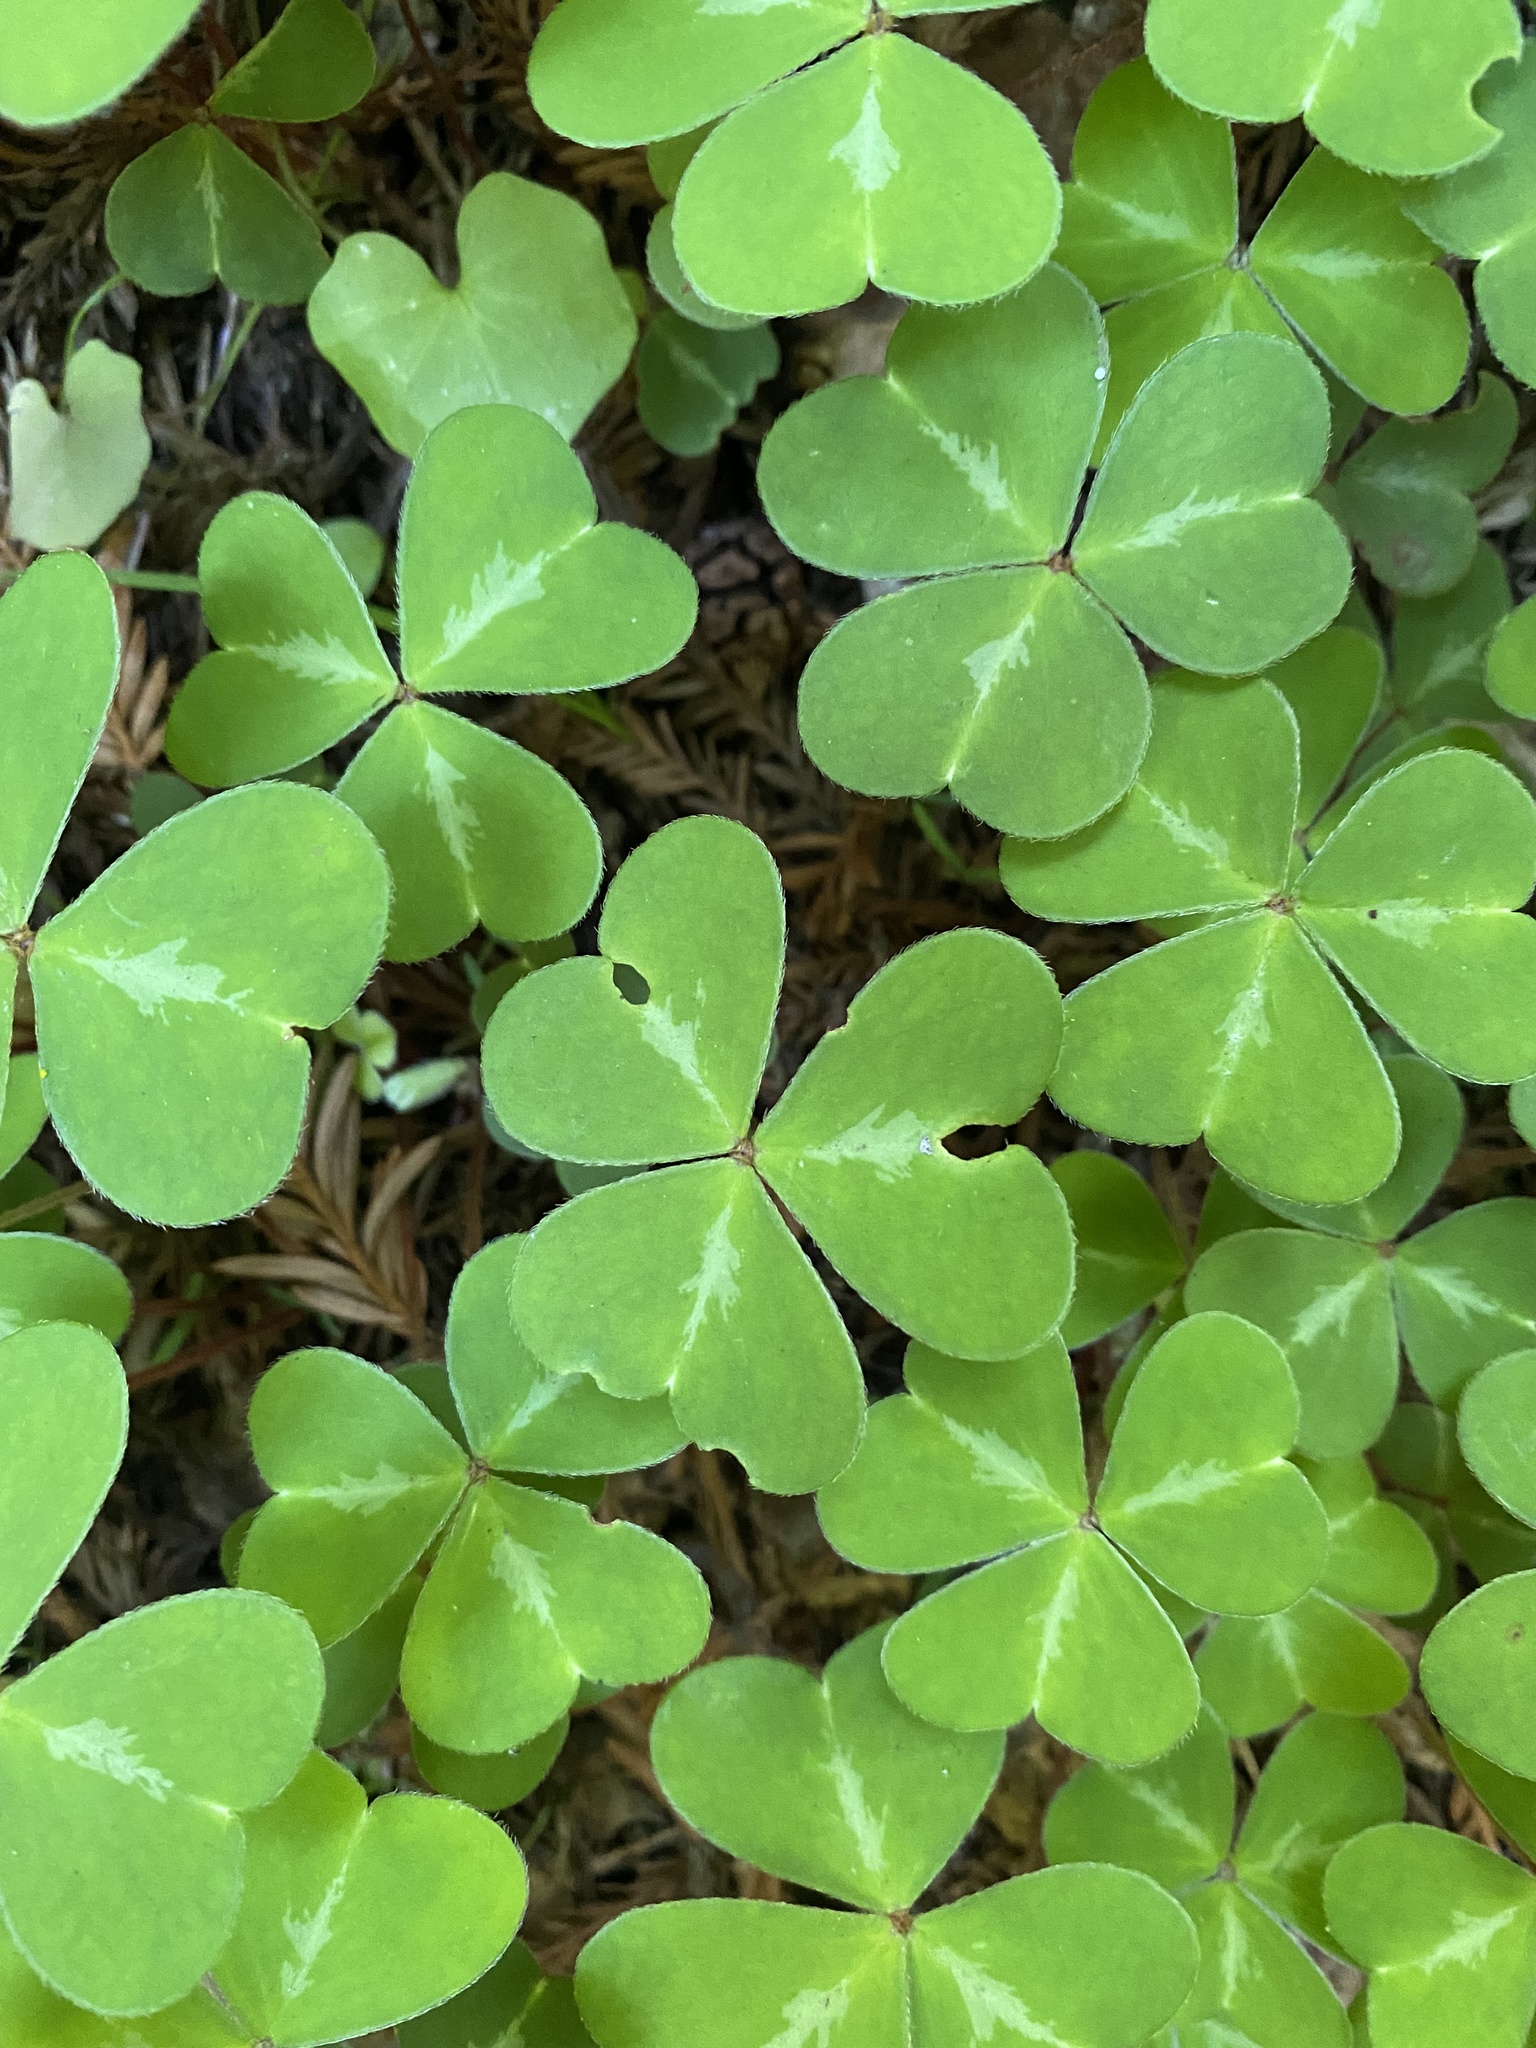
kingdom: Plantae
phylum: Tracheophyta
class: Magnoliopsida
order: Oxalidales
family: Oxalidaceae
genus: Oxalis
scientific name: Oxalis oregana
